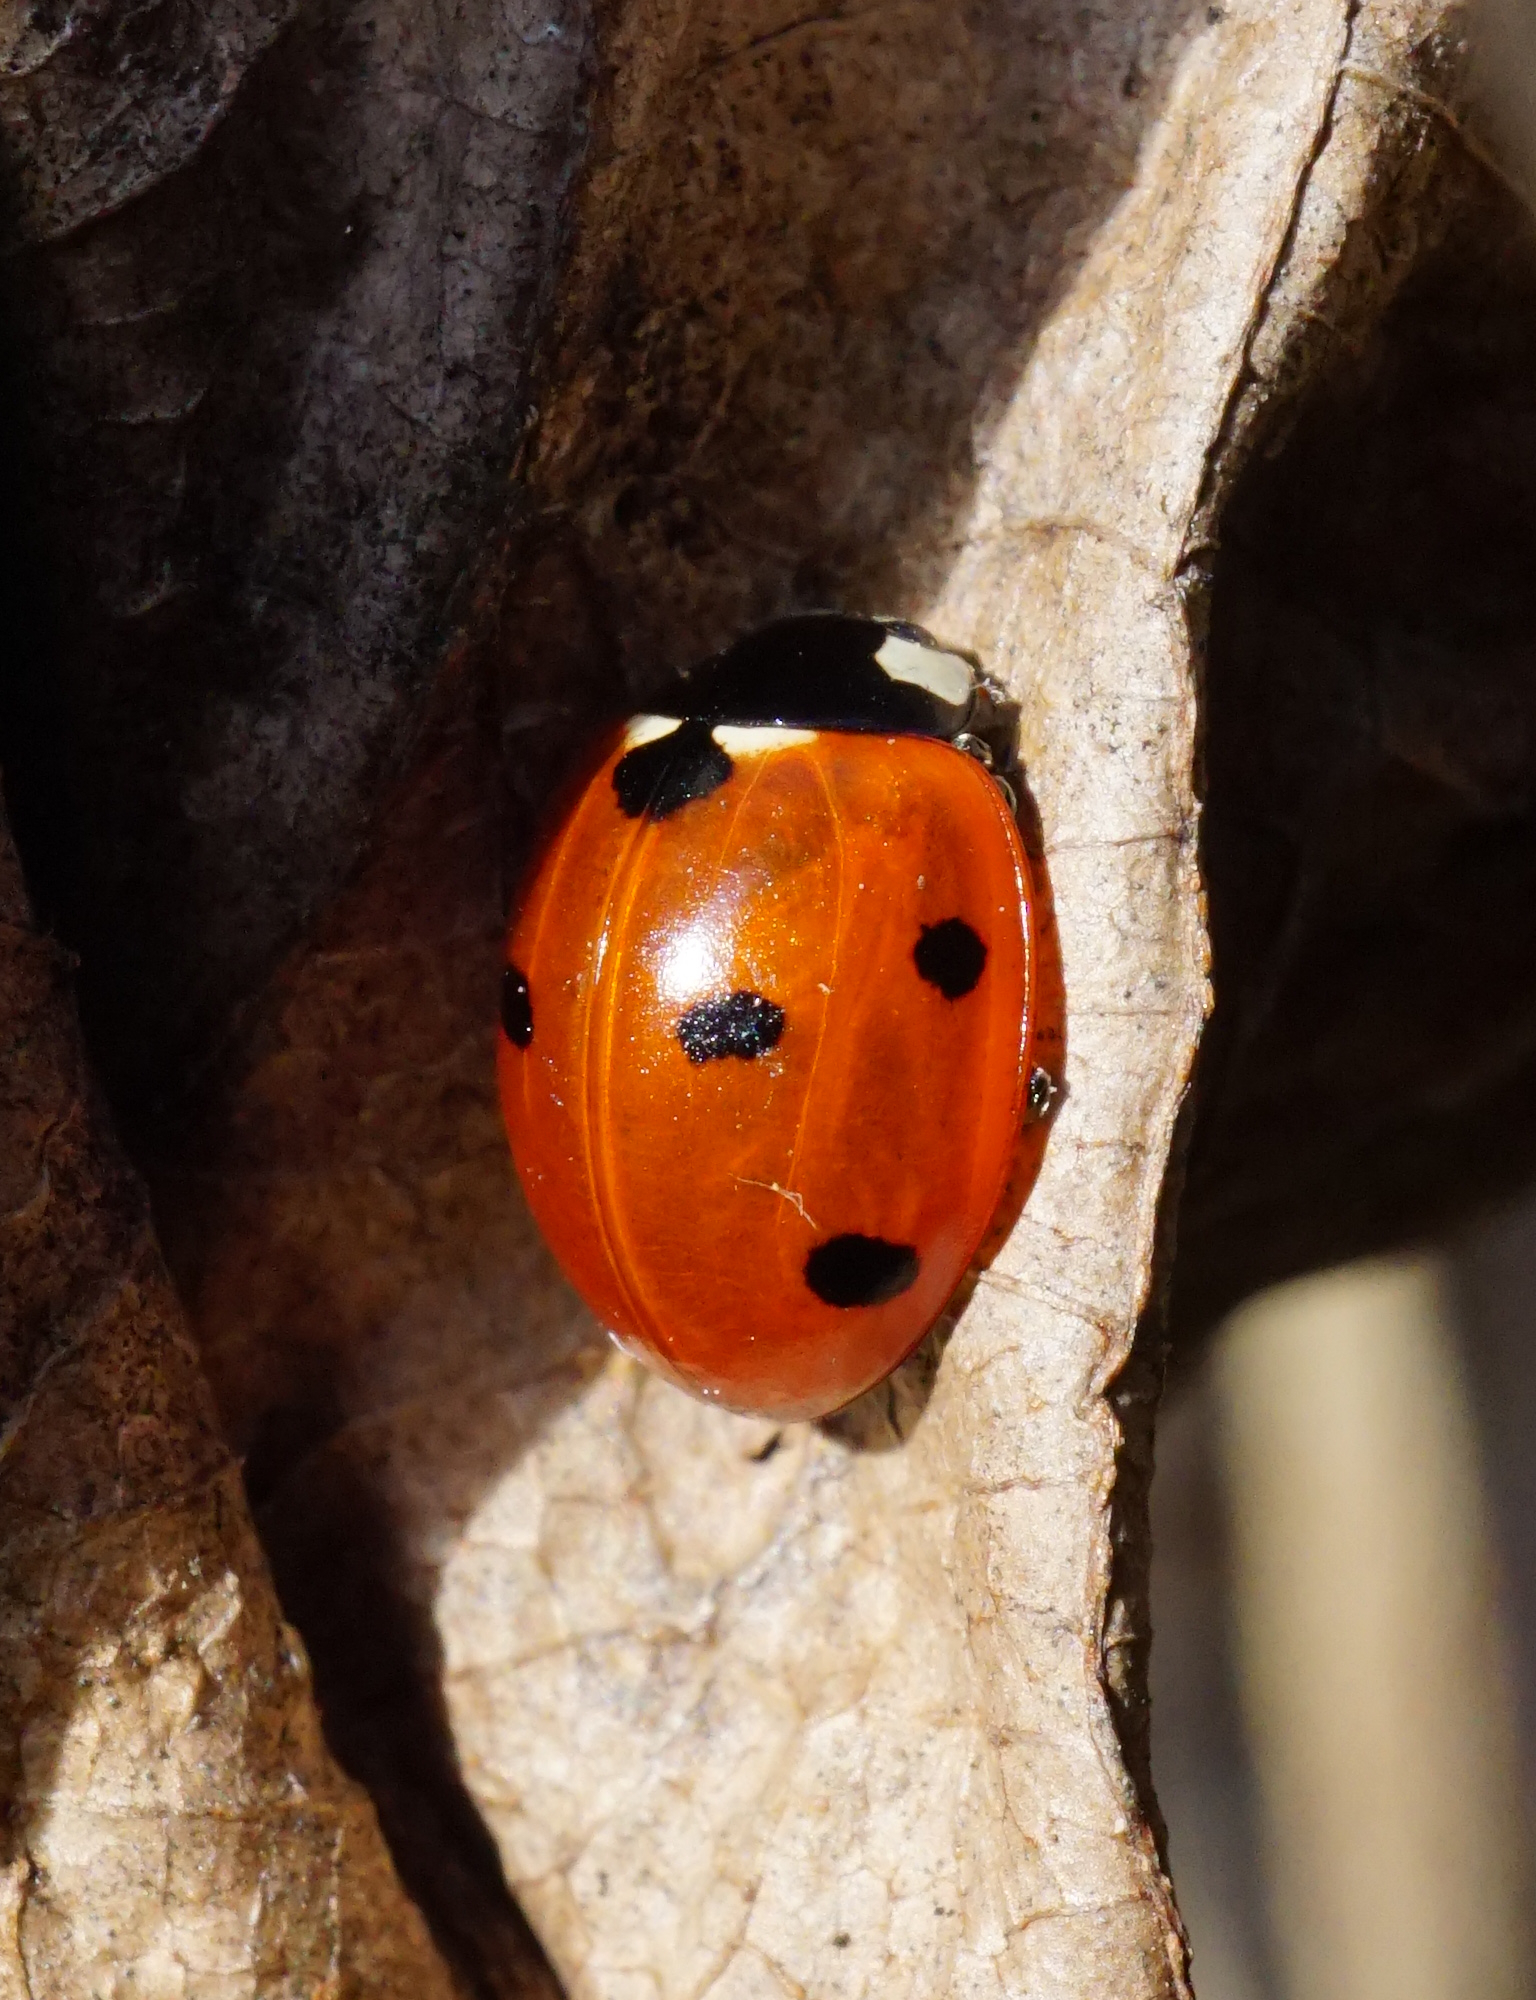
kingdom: Animalia
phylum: Arthropoda
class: Insecta
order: Coleoptera
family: Coccinellidae
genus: Coccinella
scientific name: Coccinella septempunctata
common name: Sevenspotted lady beetle
